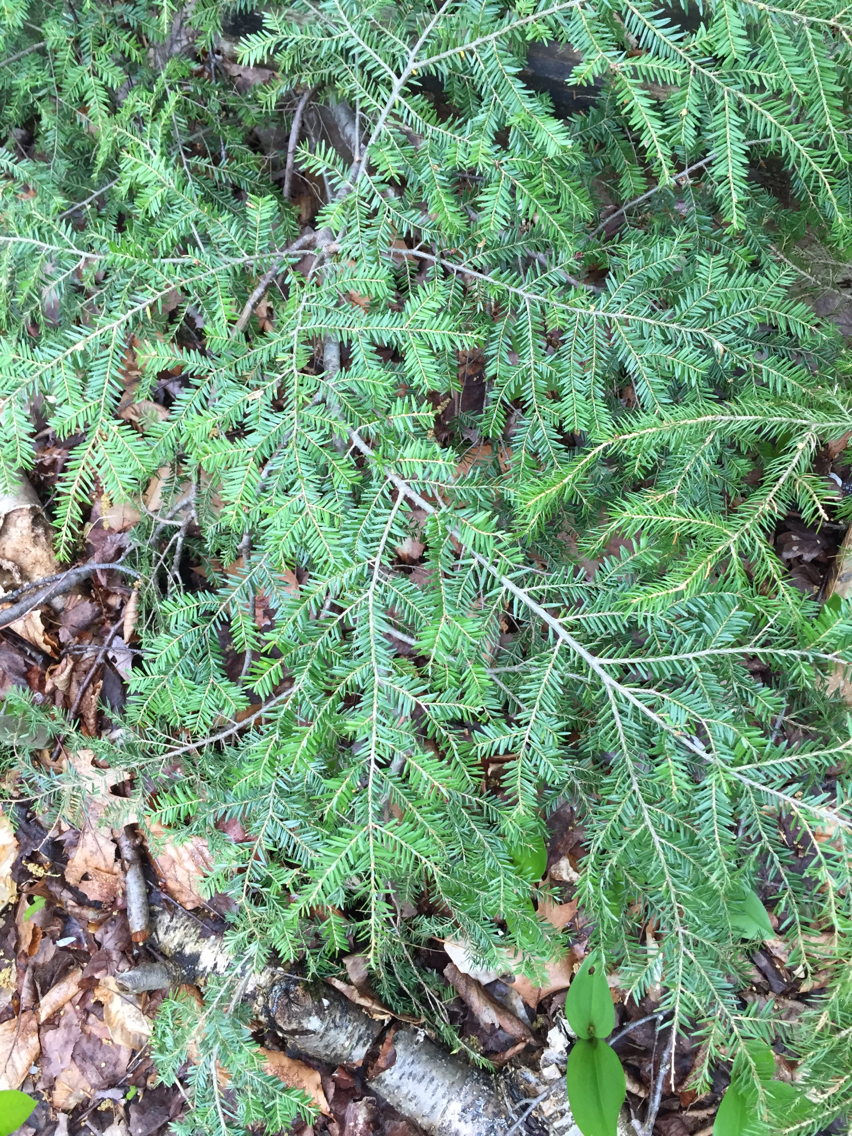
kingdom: Plantae
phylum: Tracheophyta
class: Pinopsida
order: Pinales
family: Pinaceae
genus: Tsuga
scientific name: Tsuga canadensis
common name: Eastern hemlock
